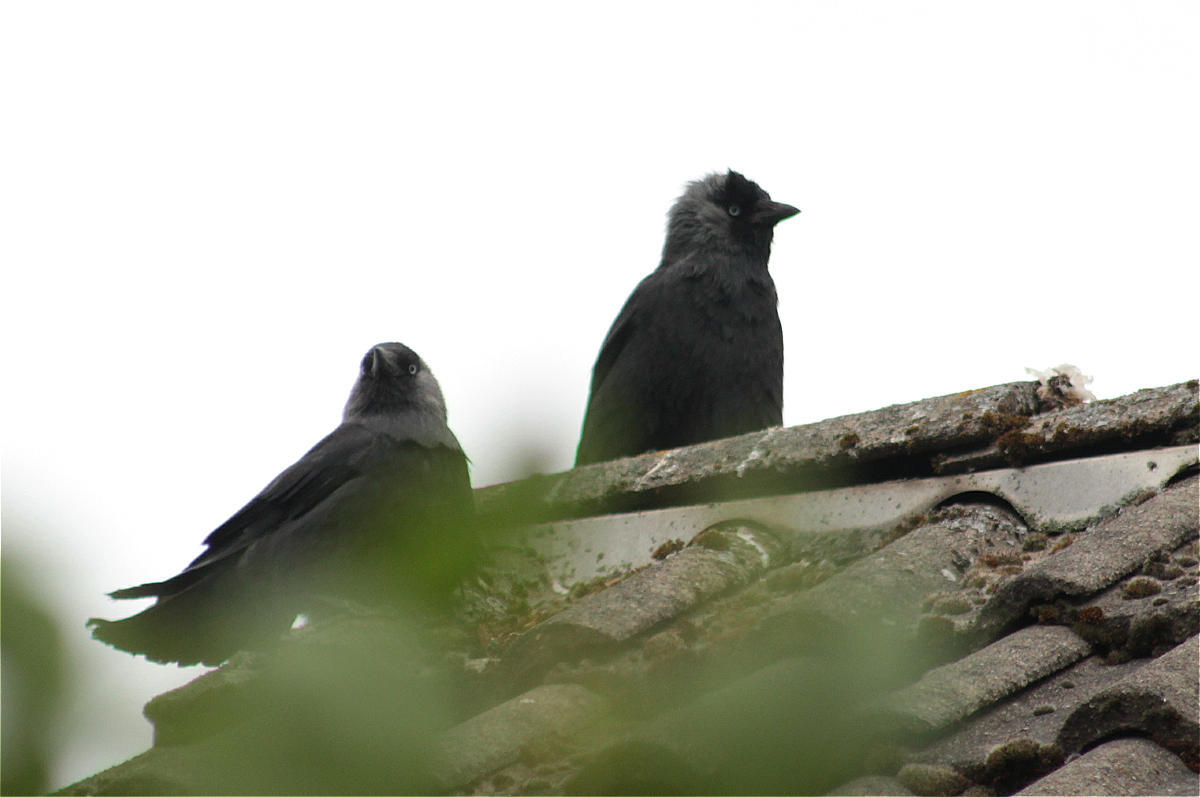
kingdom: Animalia
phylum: Chordata
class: Aves
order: Passeriformes
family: Corvidae
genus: Coloeus
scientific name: Coloeus monedula
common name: Western jackdaw
